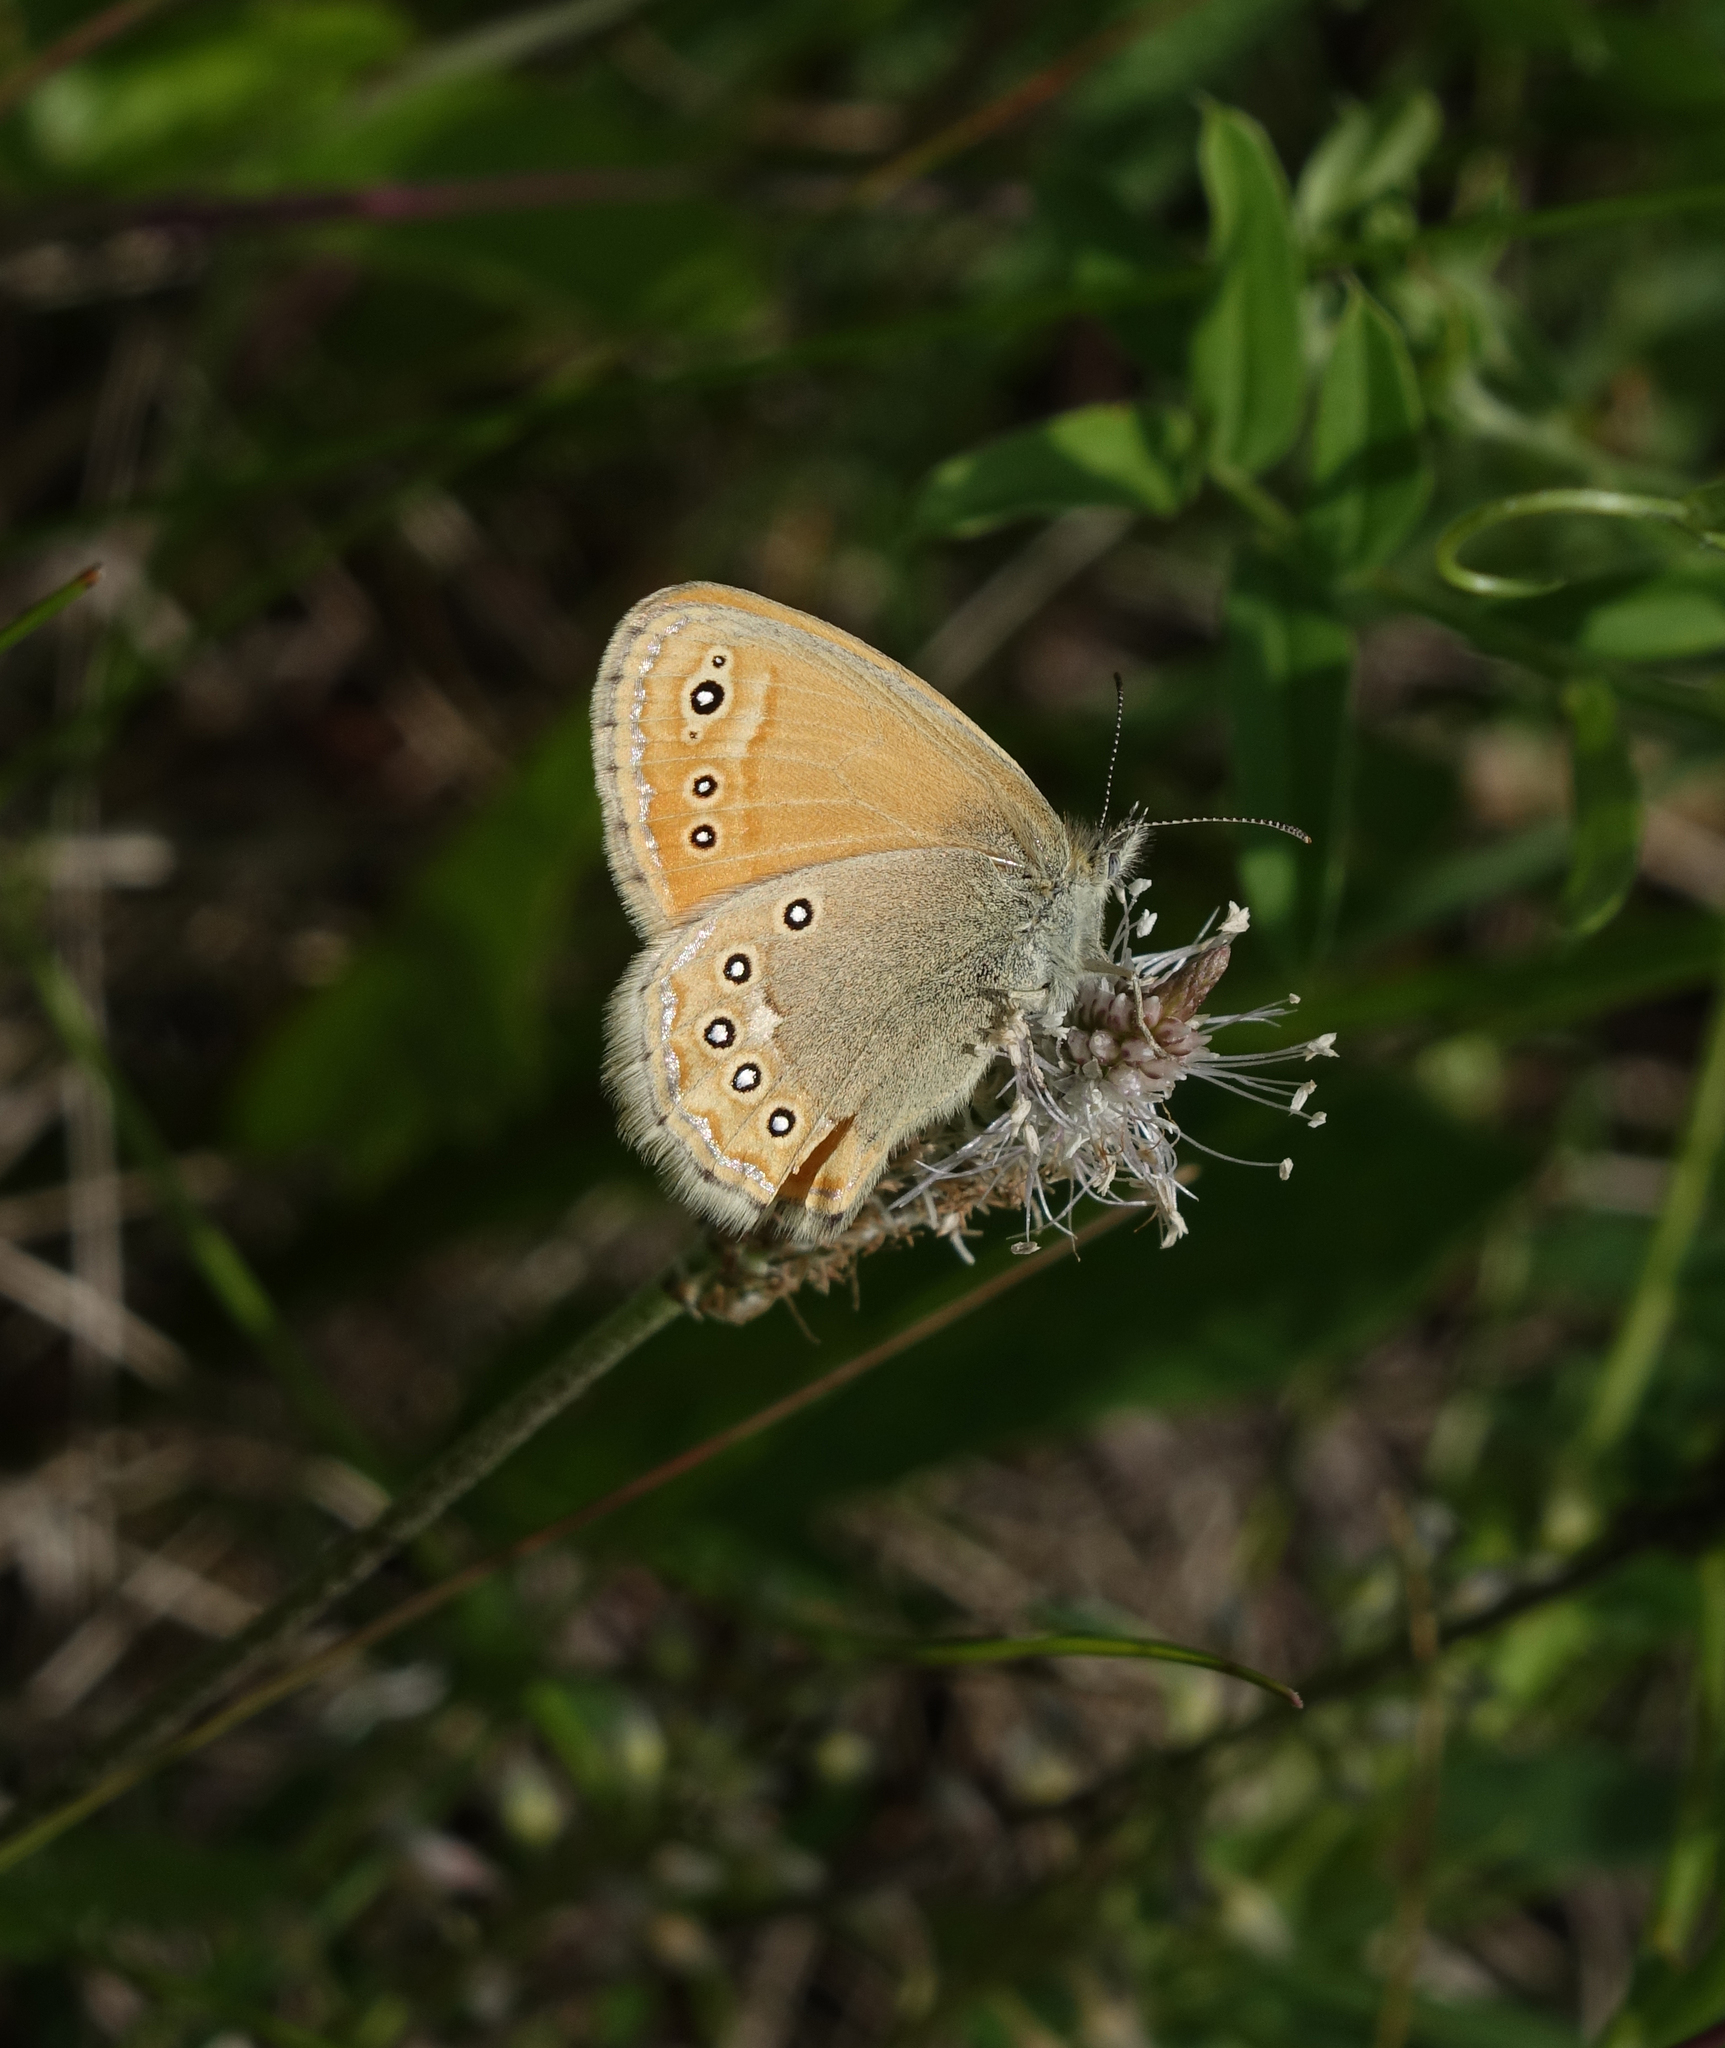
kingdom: Animalia
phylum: Arthropoda
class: Insecta
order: Lepidoptera
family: Nymphalidae
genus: Coenonympha
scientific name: Coenonympha amaryllis
